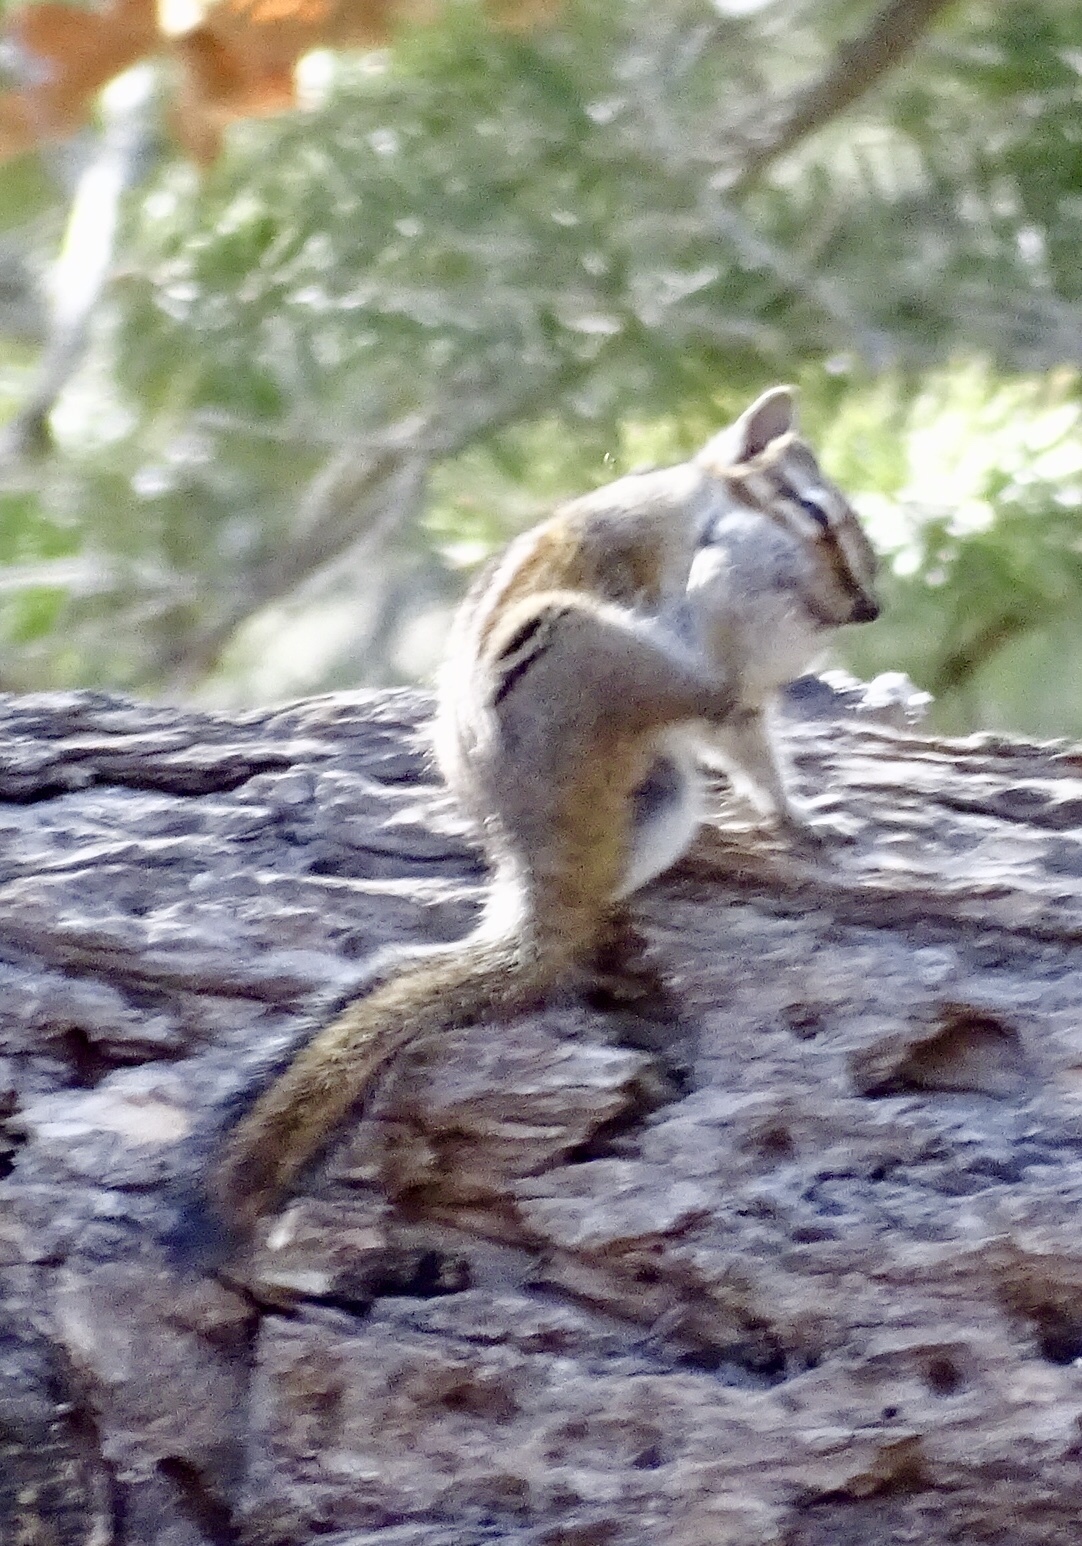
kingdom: Animalia
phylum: Chordata
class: Mammalia
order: Rodentia
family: Sciuridae
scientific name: Sciuridae
